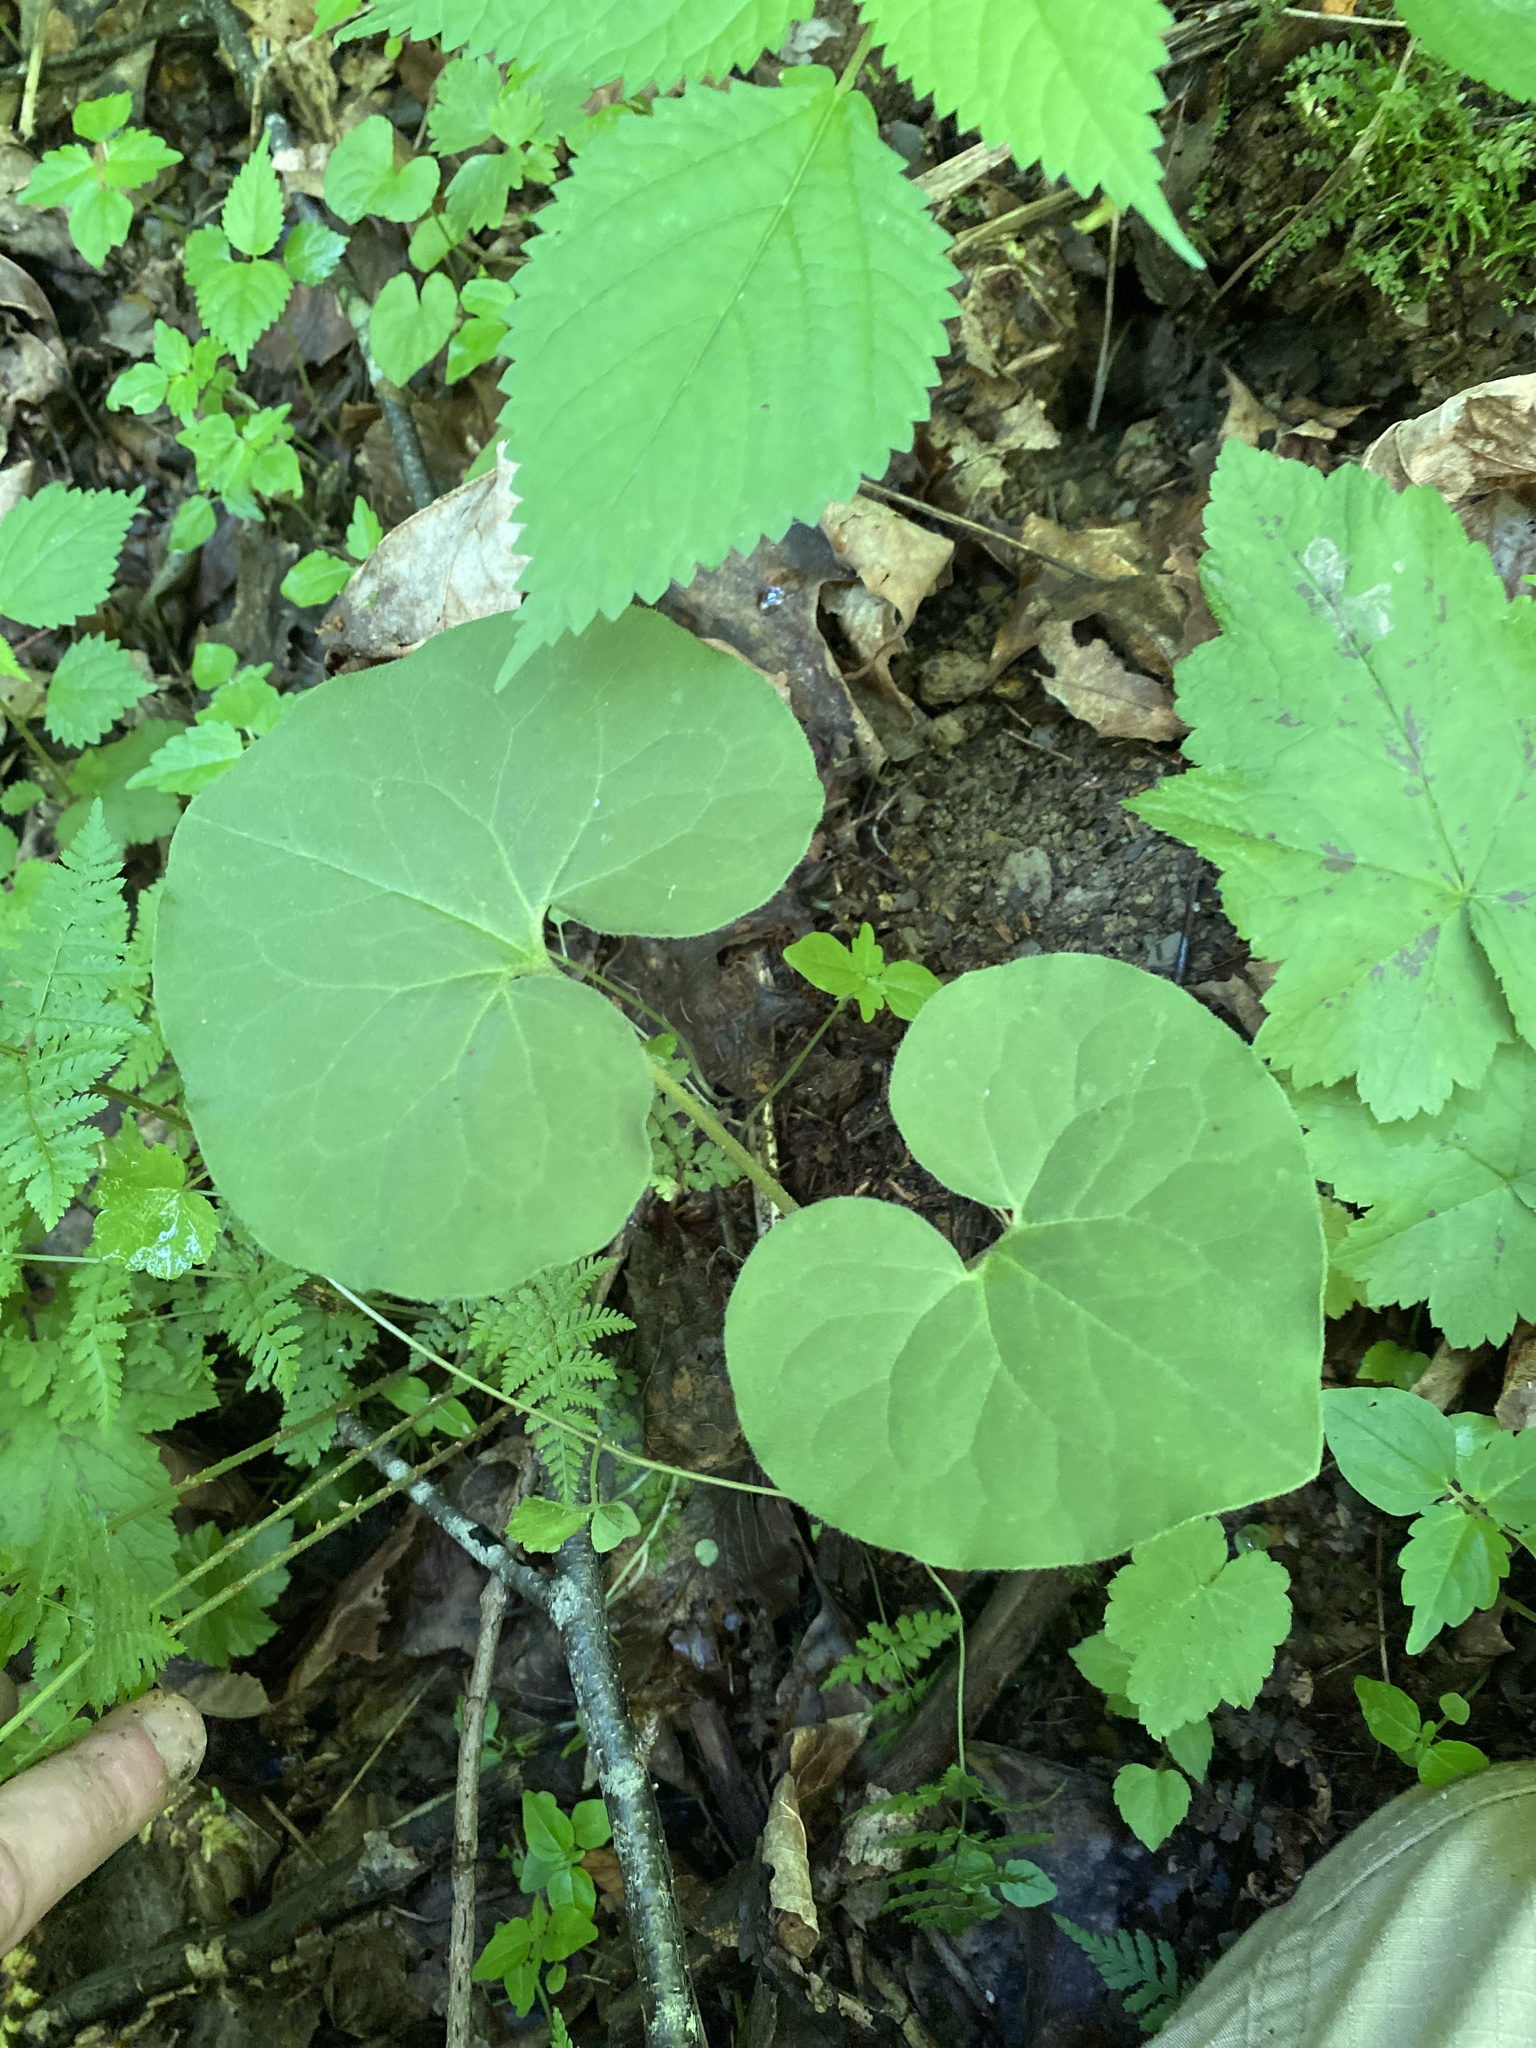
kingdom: Plantae
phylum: Tracheophyta
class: Magnoliopsida
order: Piperales
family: Aristolochiaceae
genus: Asarum
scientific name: Asarum canadense
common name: Wild ginger
